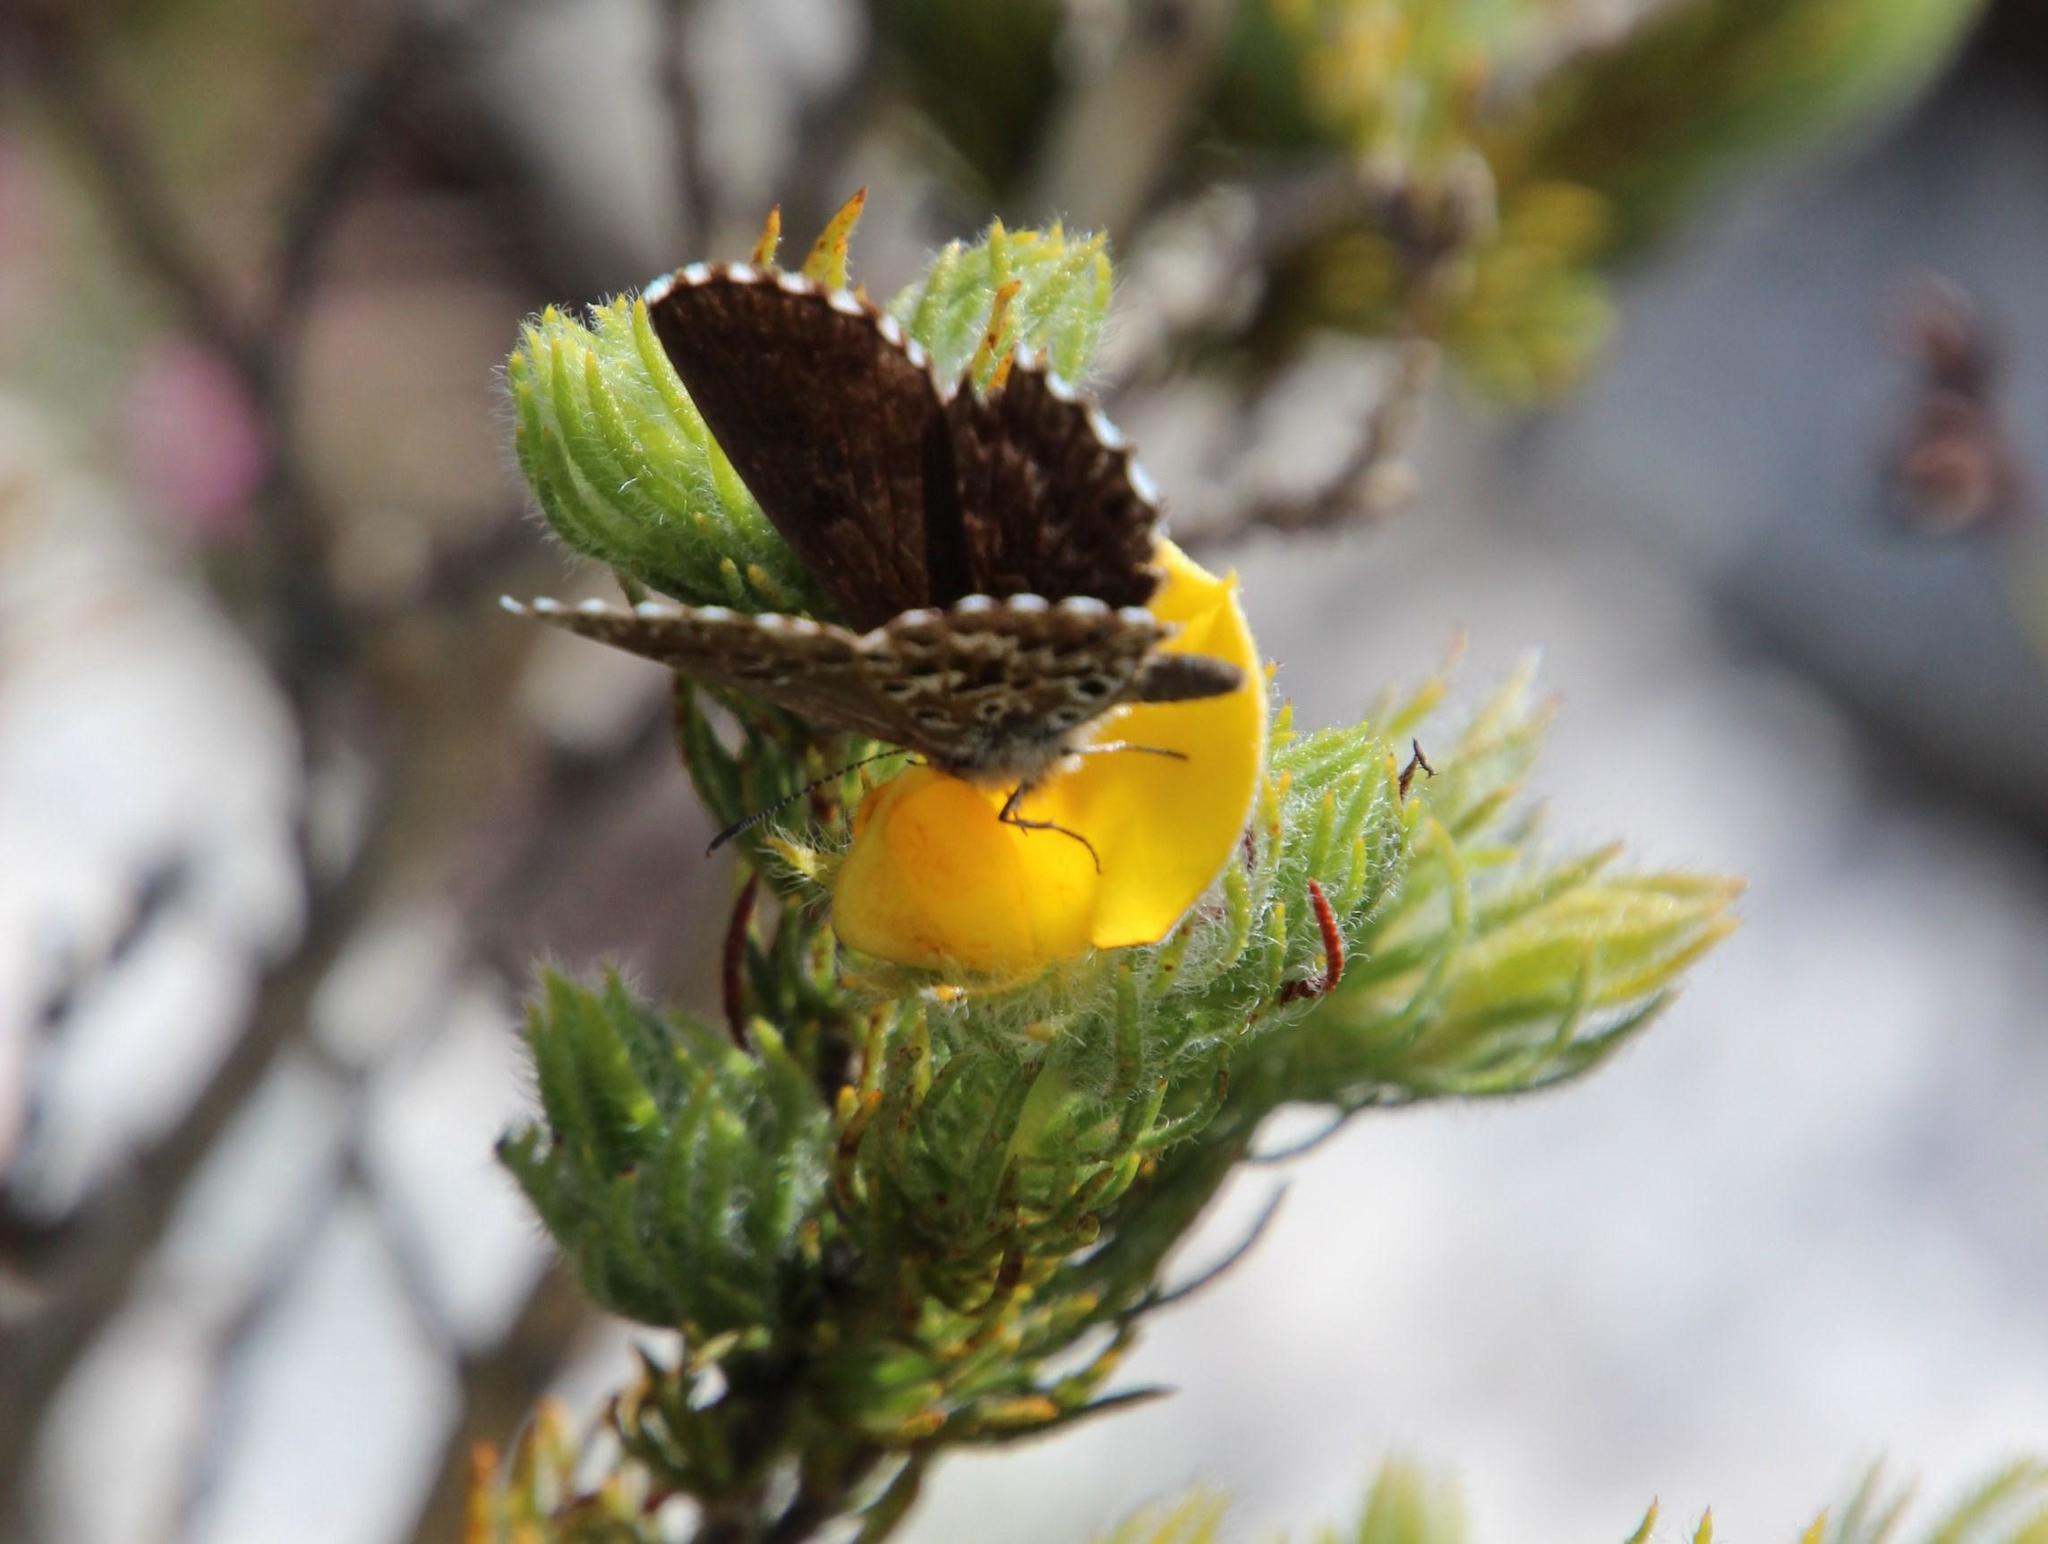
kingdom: Animalia
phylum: Arthropoda
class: Insecta
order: Lepidoptera
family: Lycaenidae
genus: Lepidochrysops
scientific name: Lepidochrysops robertsoni
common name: Robertson's blue
